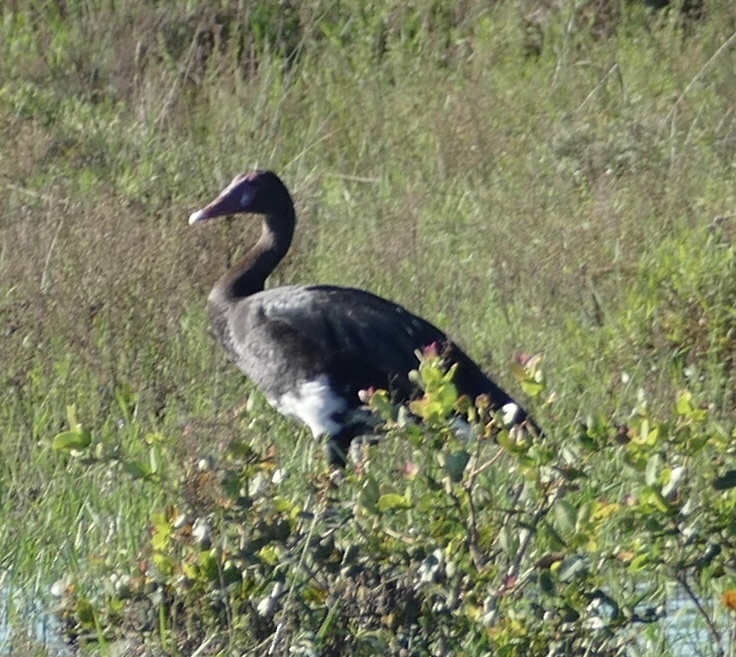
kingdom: Animalia
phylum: Chordata
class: Aves
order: Anseriformes
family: Anatidae
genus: Plectropterus
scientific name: Plectropterus gambensis
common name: Spur-winged goose
